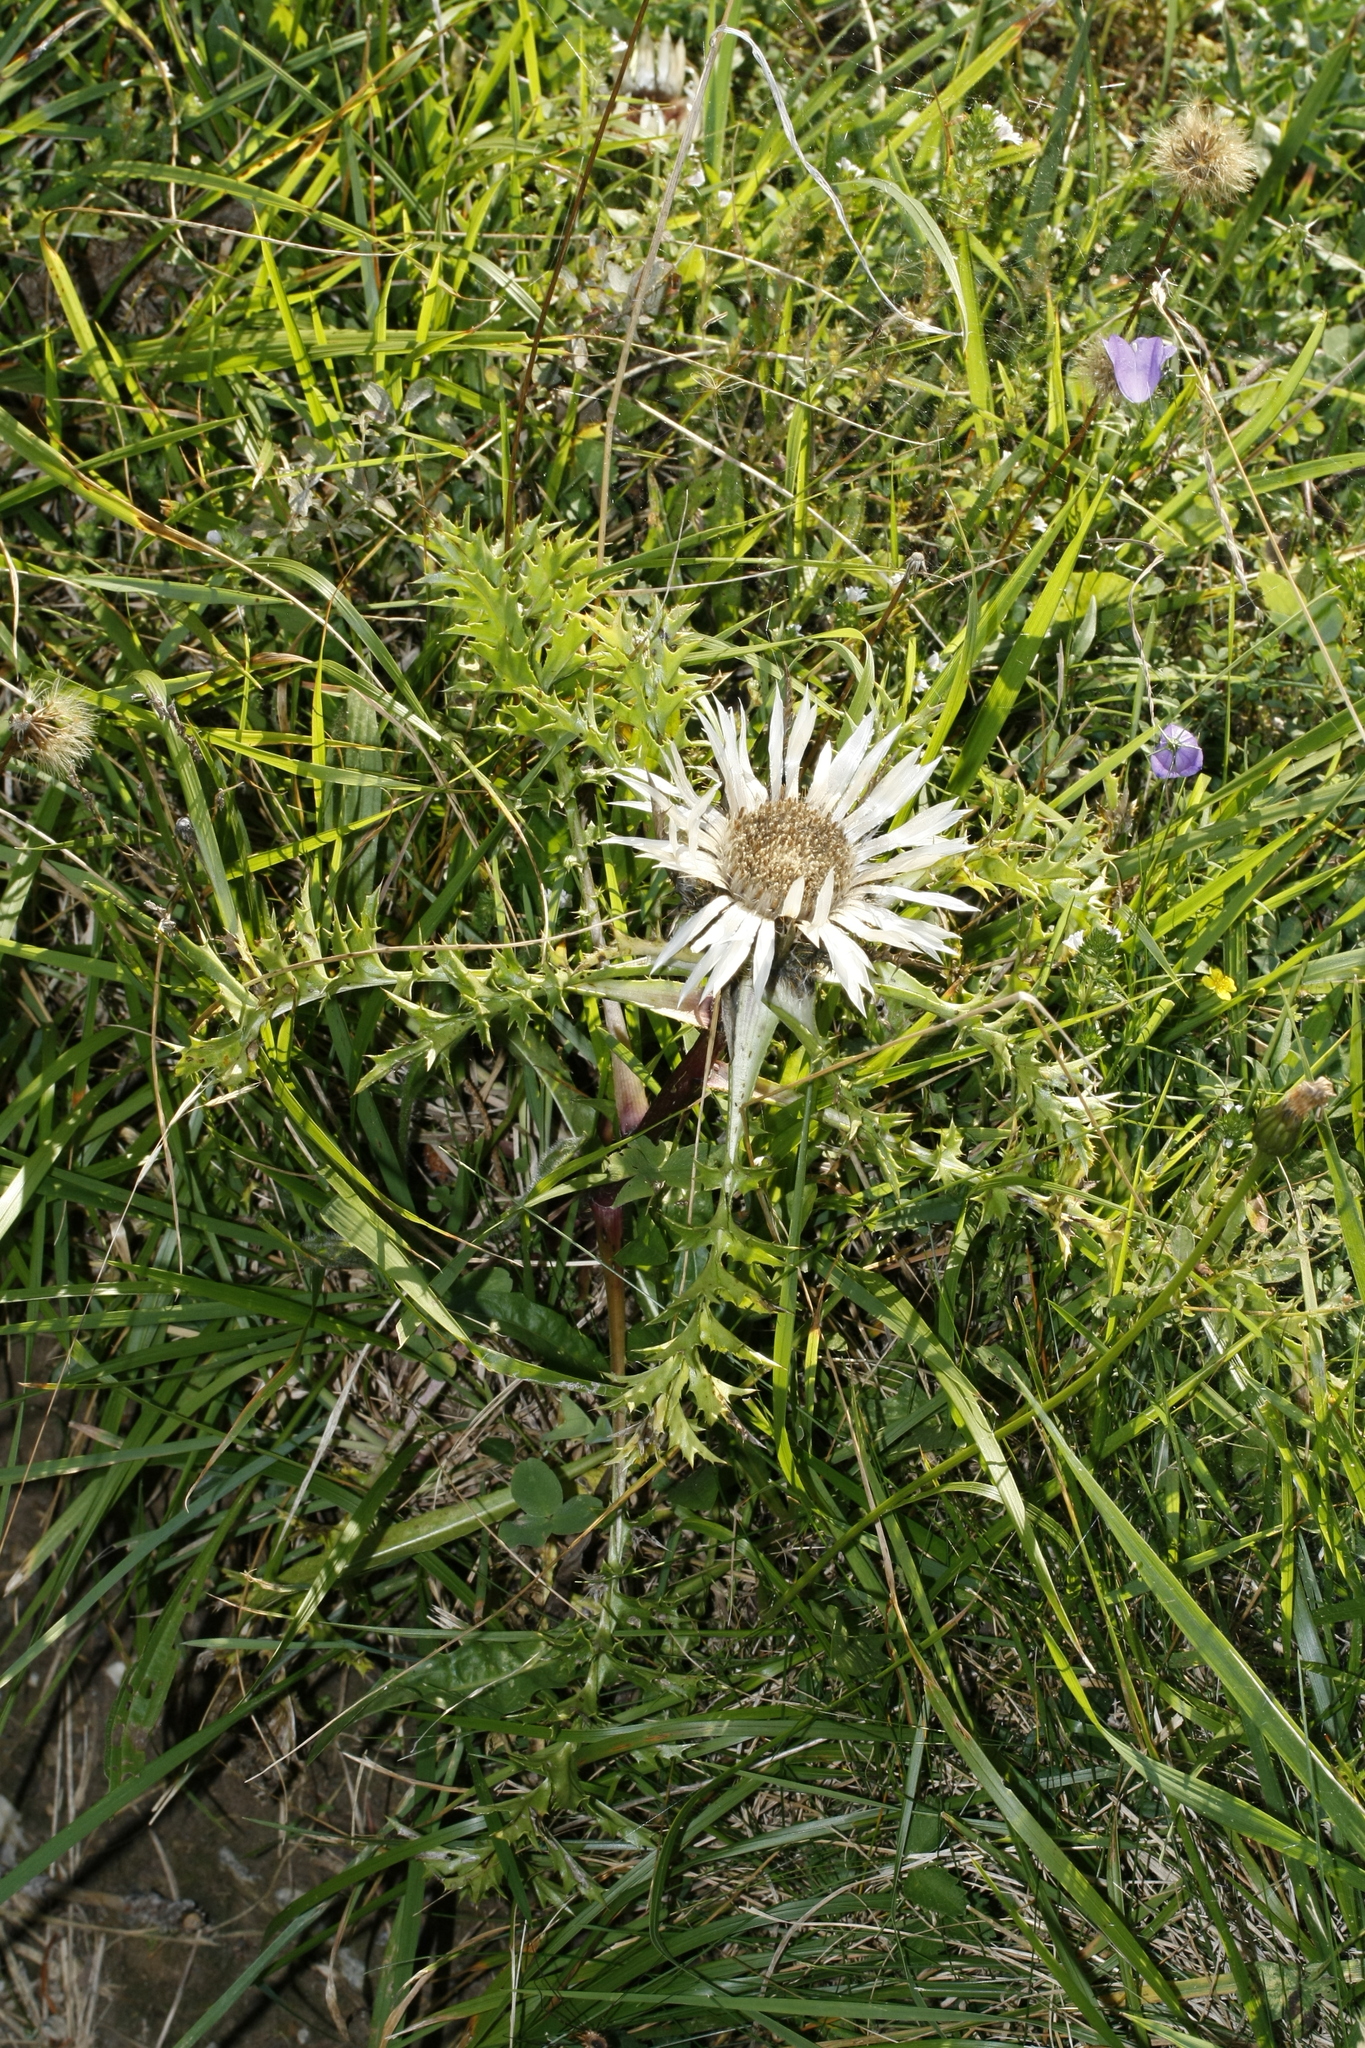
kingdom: Plantae
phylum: Tracheophyta
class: Magnoliopsida
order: Asterales
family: Asteraceae
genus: Carlina
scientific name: Carlina acaulis
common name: Stemless carline thistle
